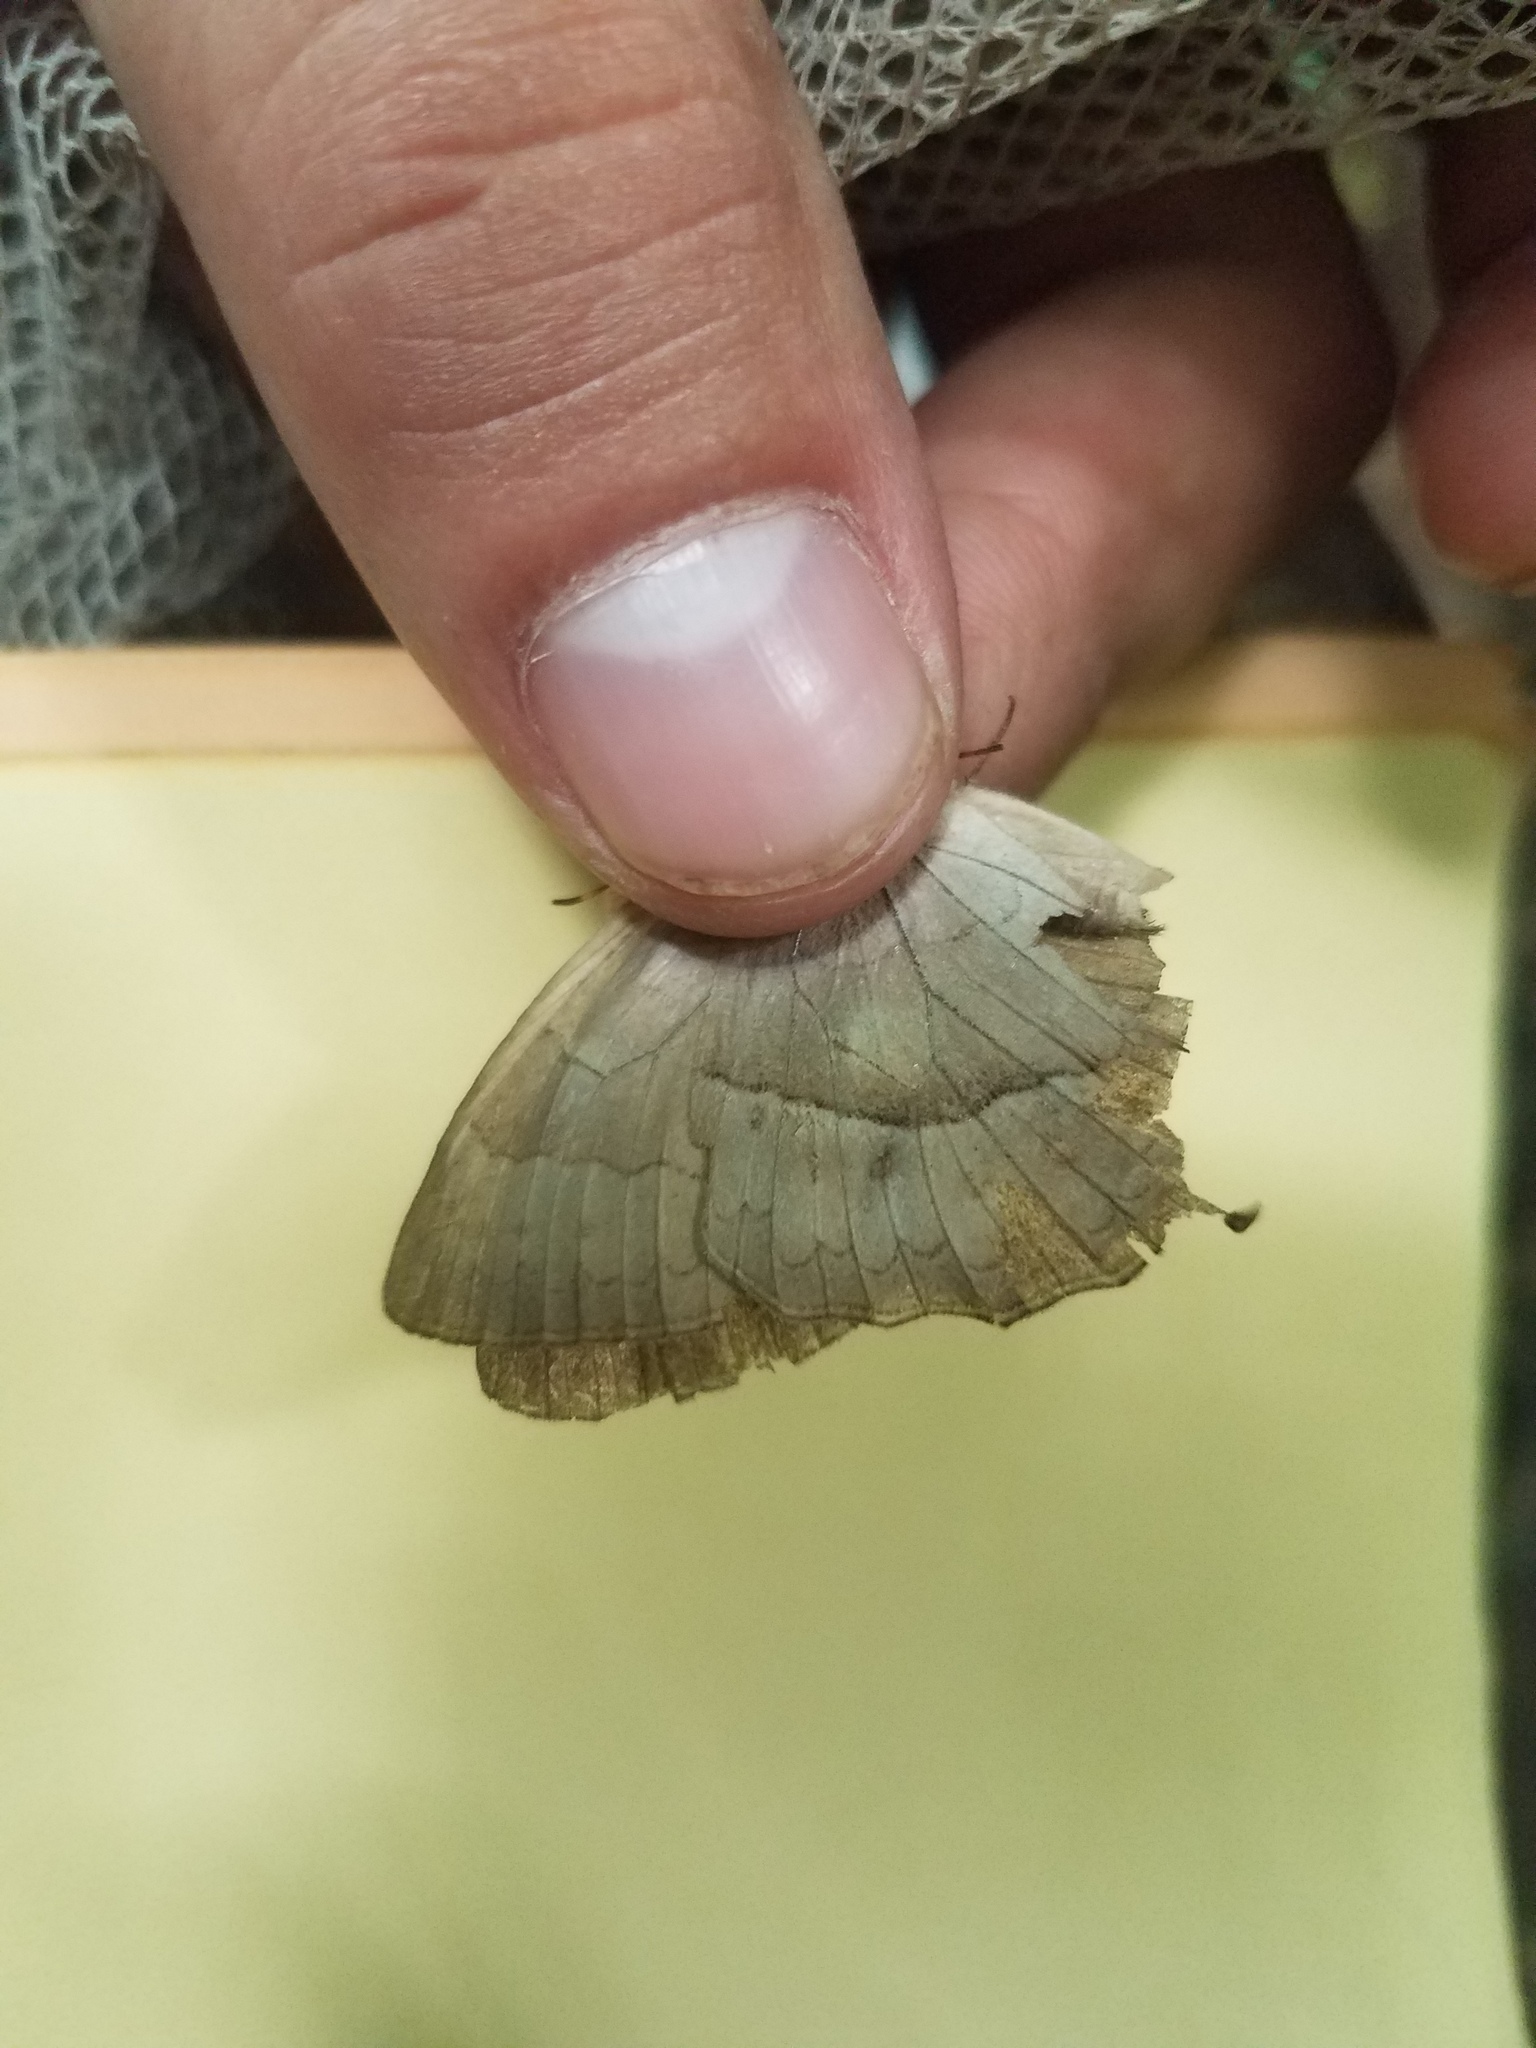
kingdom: Animalia
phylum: Arthropoda
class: Insecta
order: Lepidoptera
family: Nymphalidae
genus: Taygetina
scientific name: Taygetina kerea
